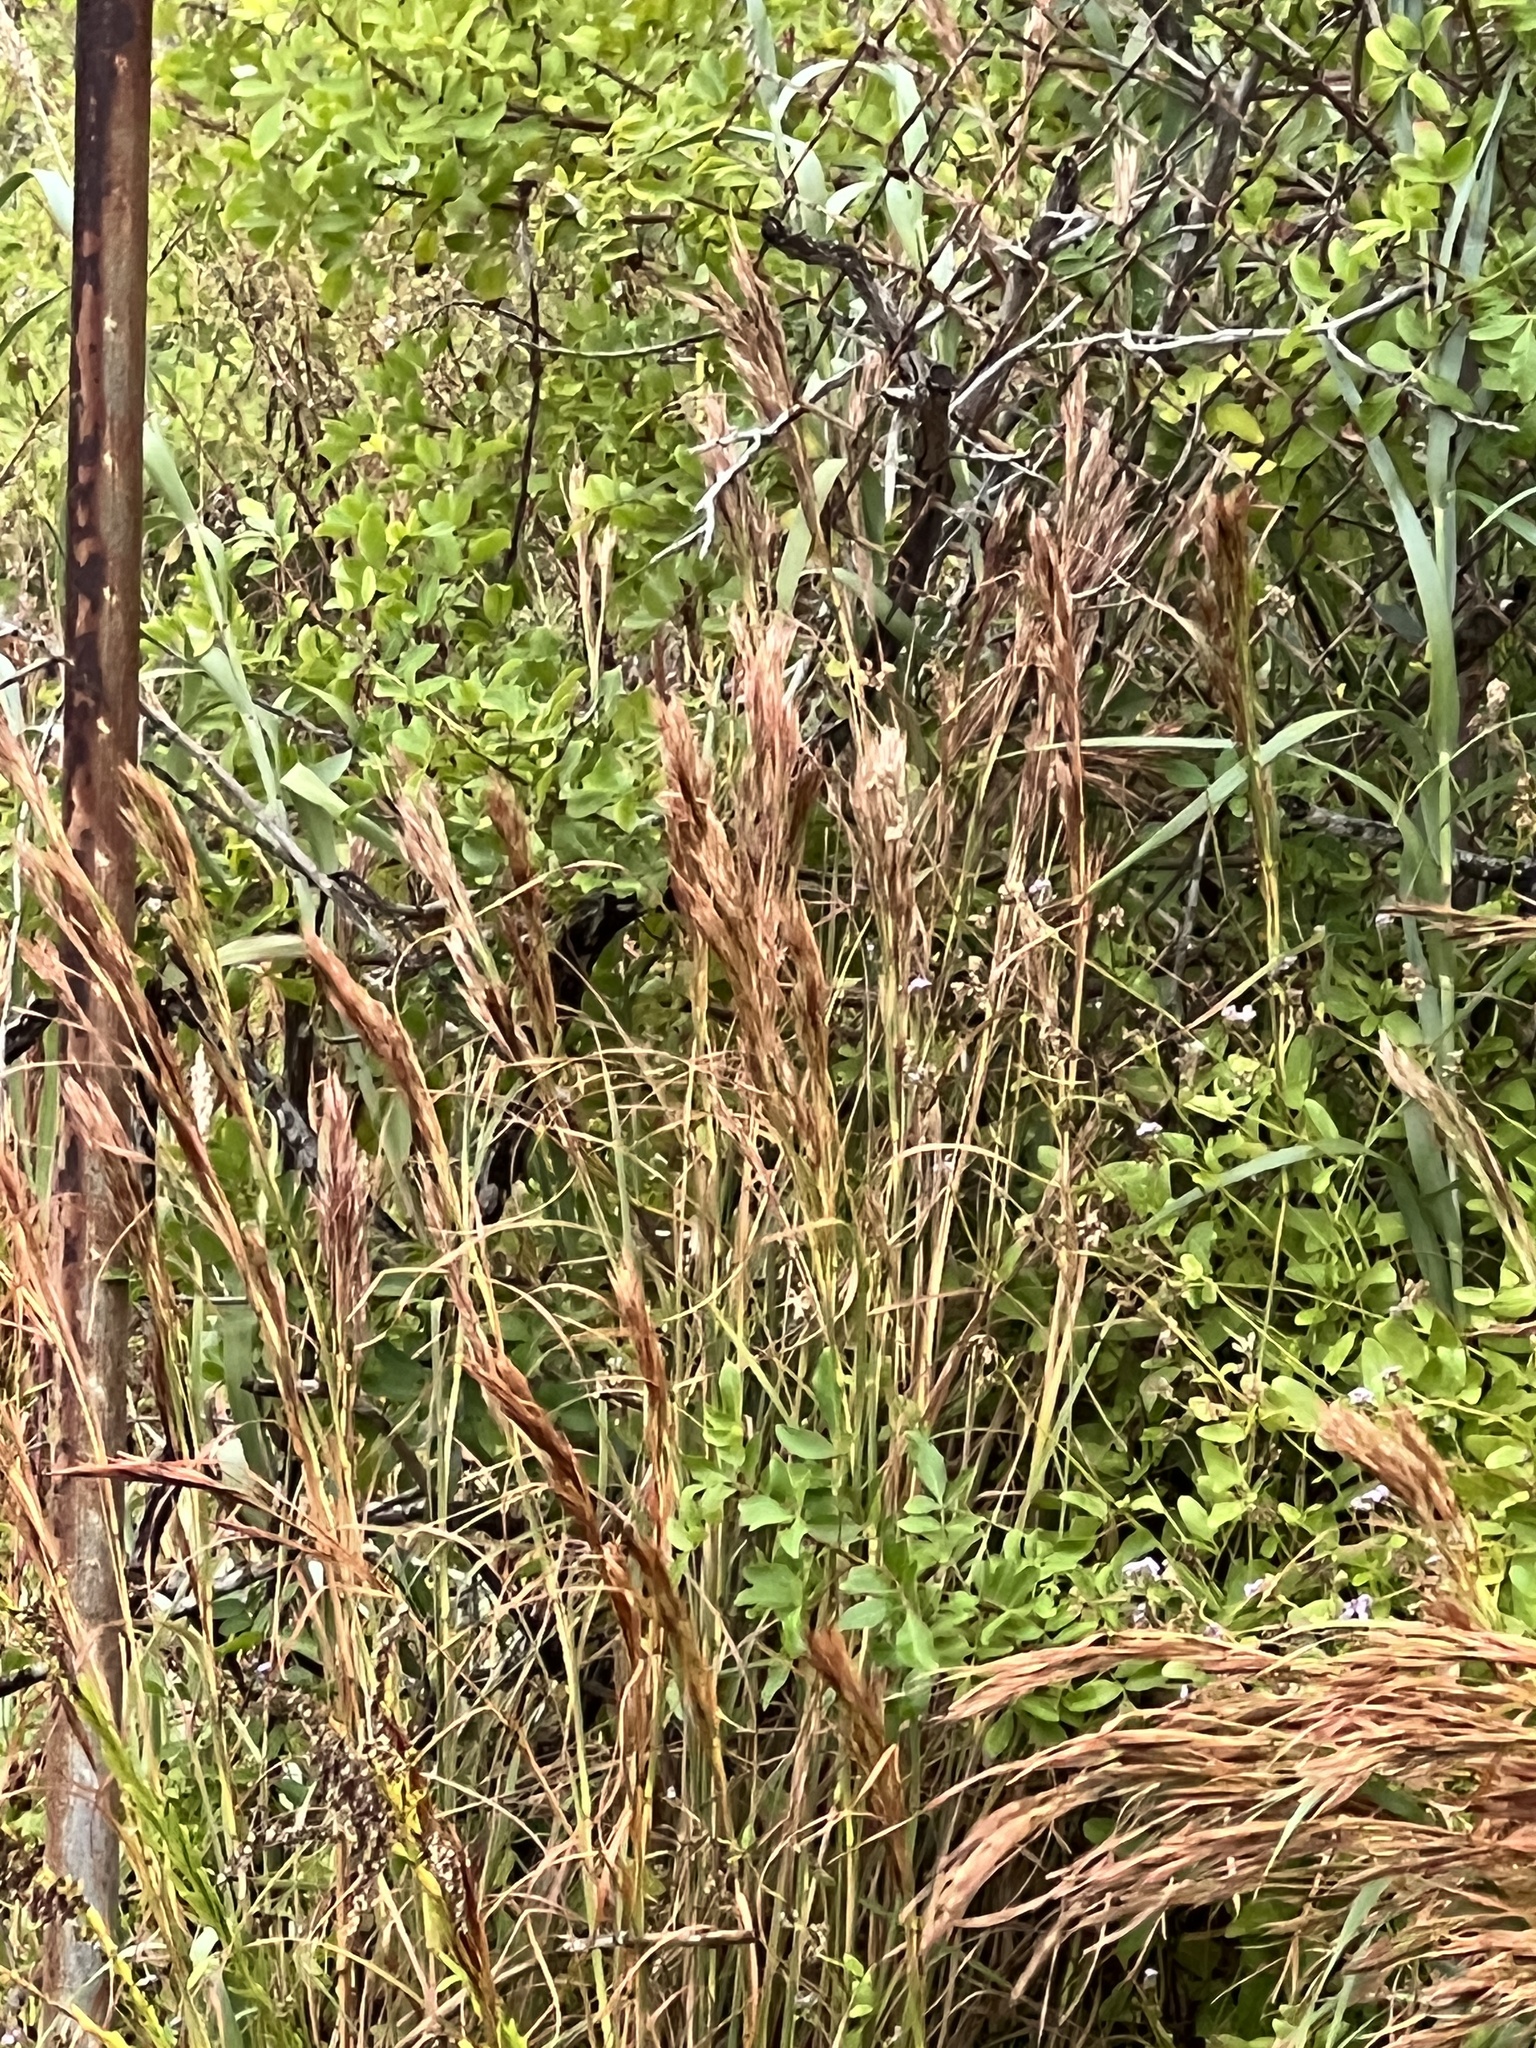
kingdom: Plantae
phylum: Tracheophyta
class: Liliopsida
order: Poales
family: Poaceae
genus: Andropogon
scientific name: Andropogon tenuispatheus
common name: Bushy bluestem
